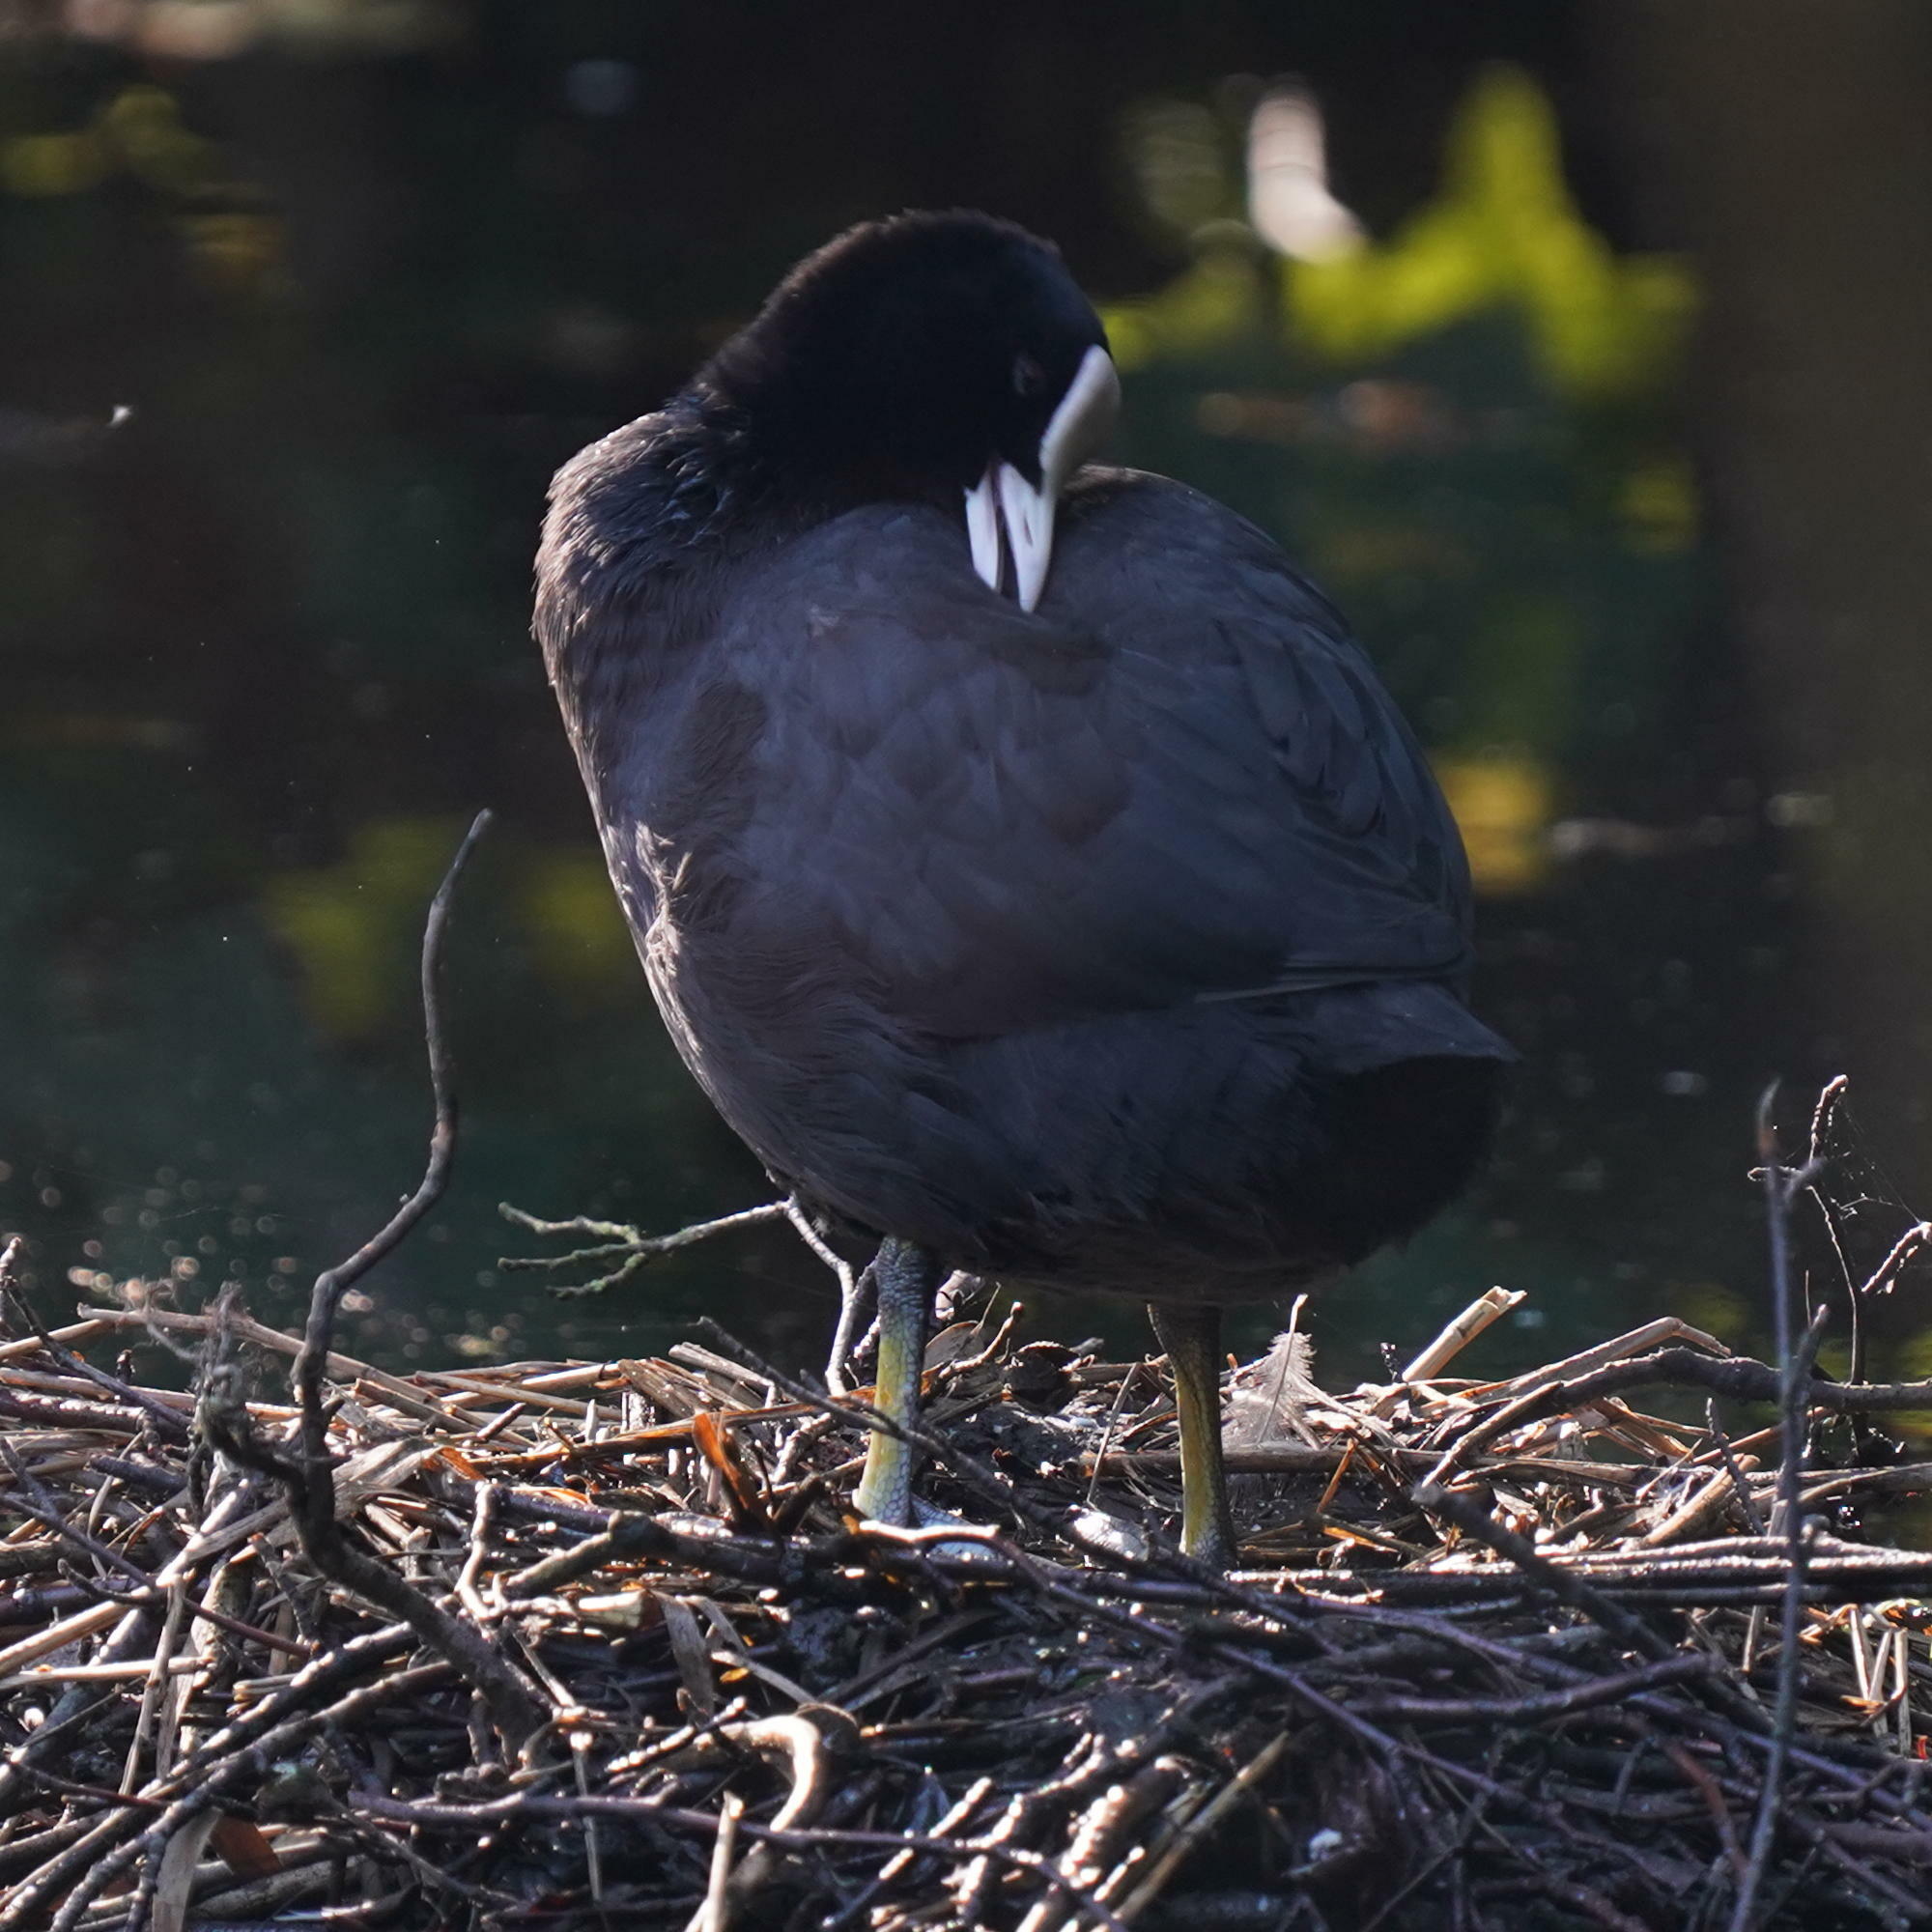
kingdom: Animalia
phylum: Chordata
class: Aves
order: Gruiformes
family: Rallidae
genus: Fulica
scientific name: Fulica atra
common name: Eurasian coot
